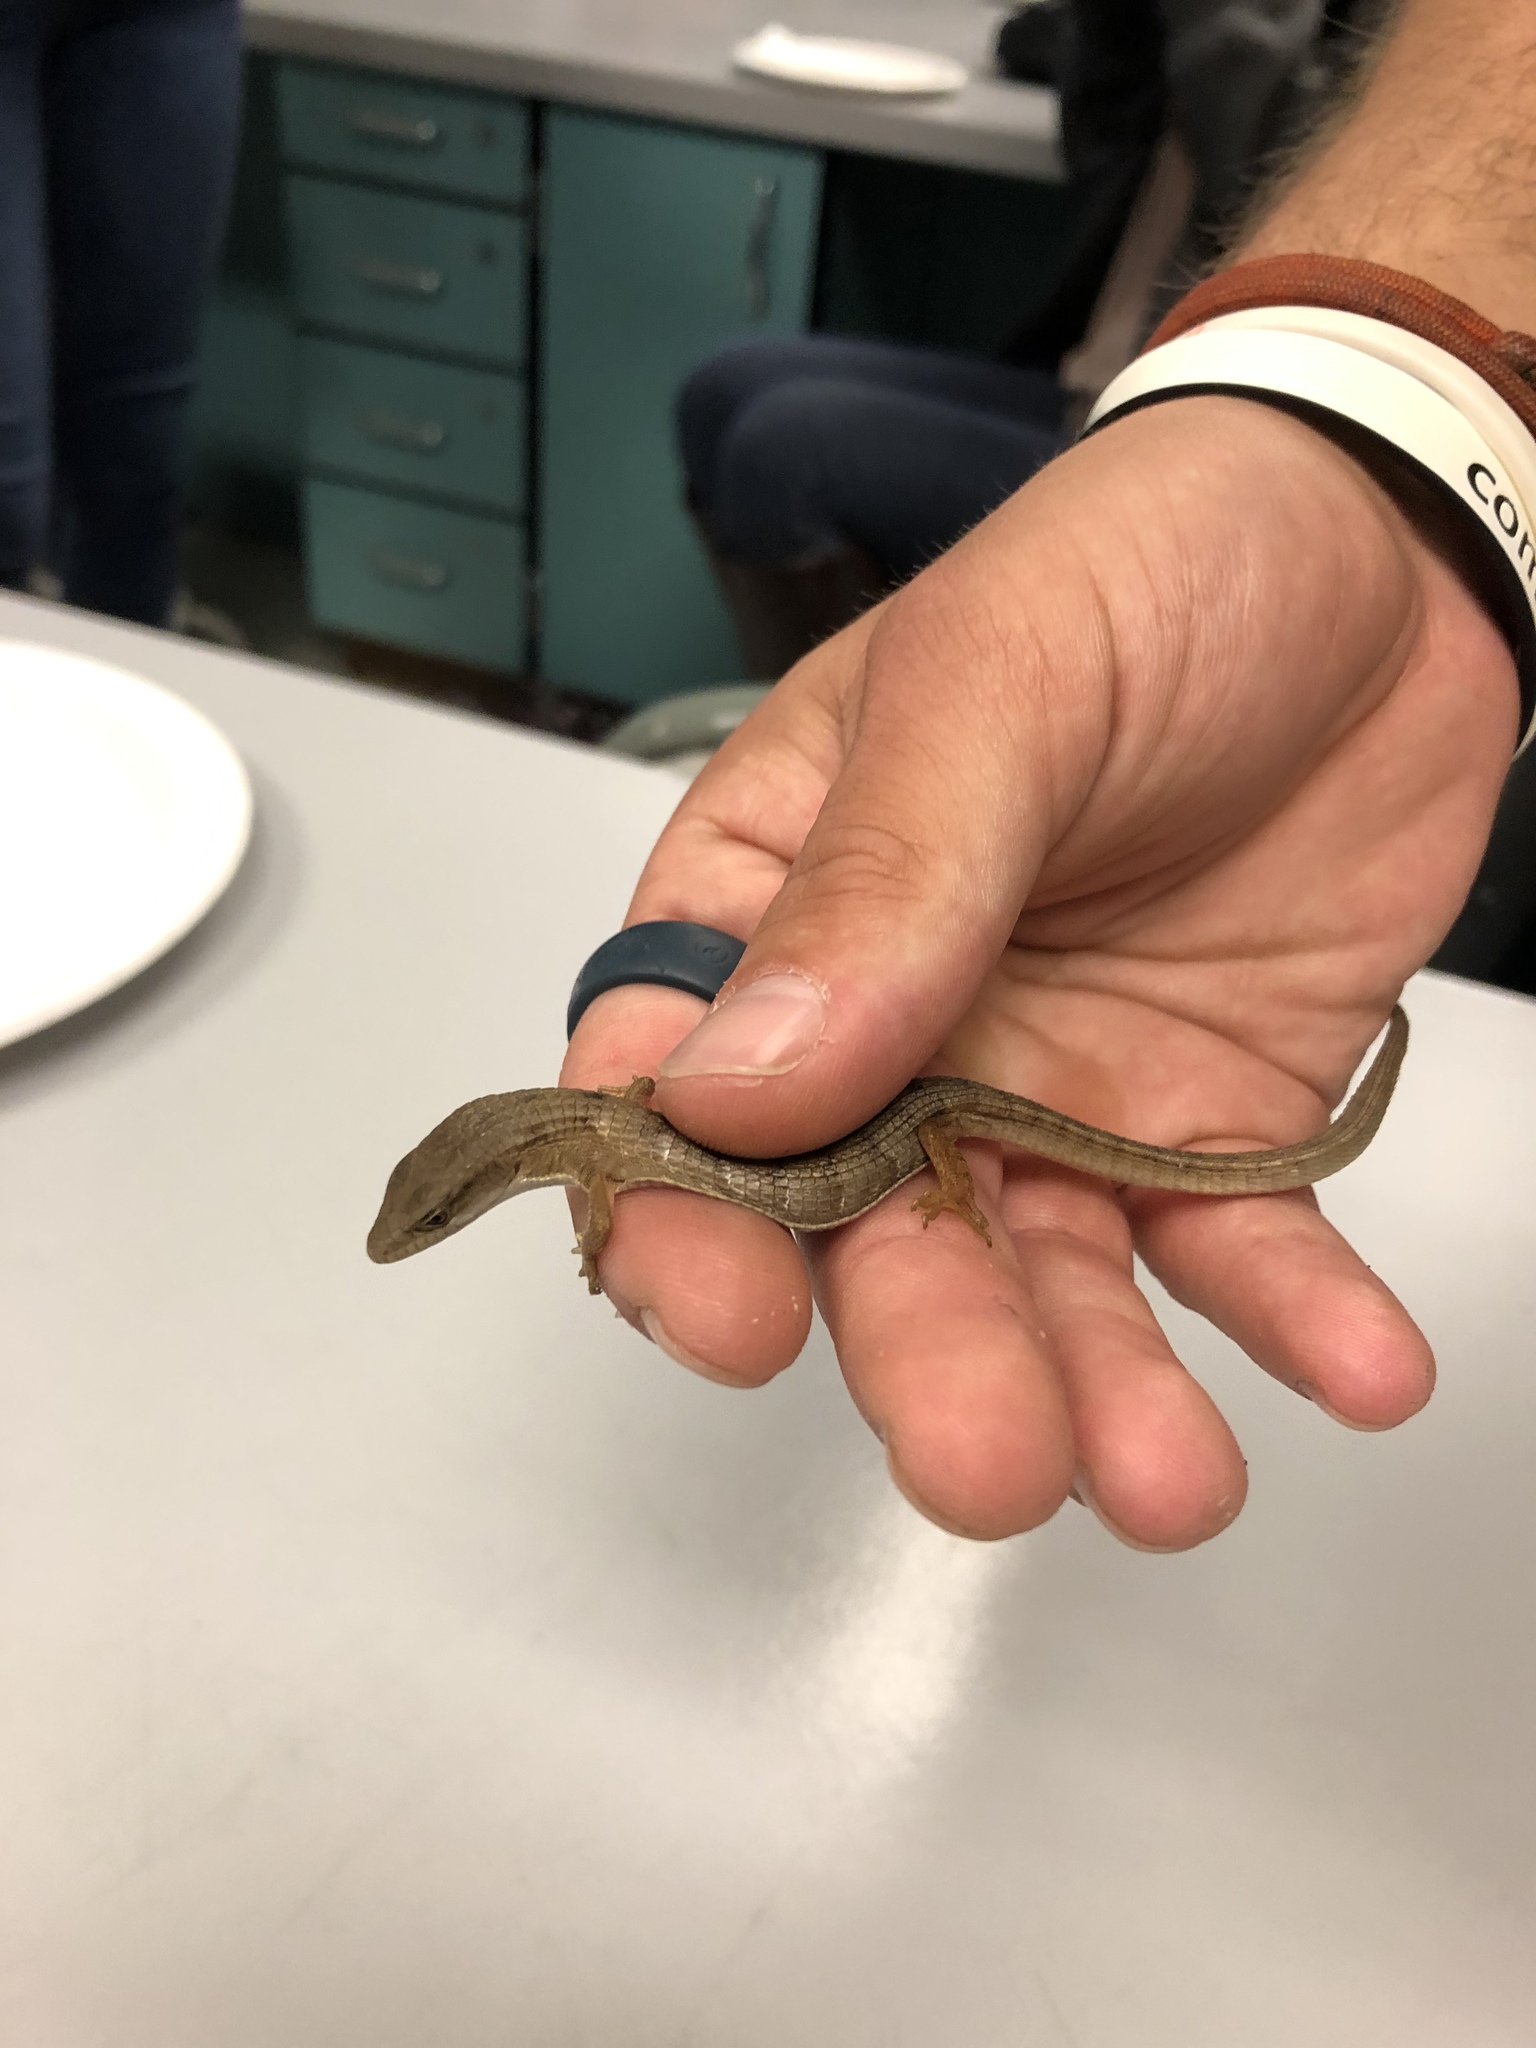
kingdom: Animalia
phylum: Chordata
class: Squamata
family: Anguidae
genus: Elgaria
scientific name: Elgaria multicarinata
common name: Southern alligator lizard
